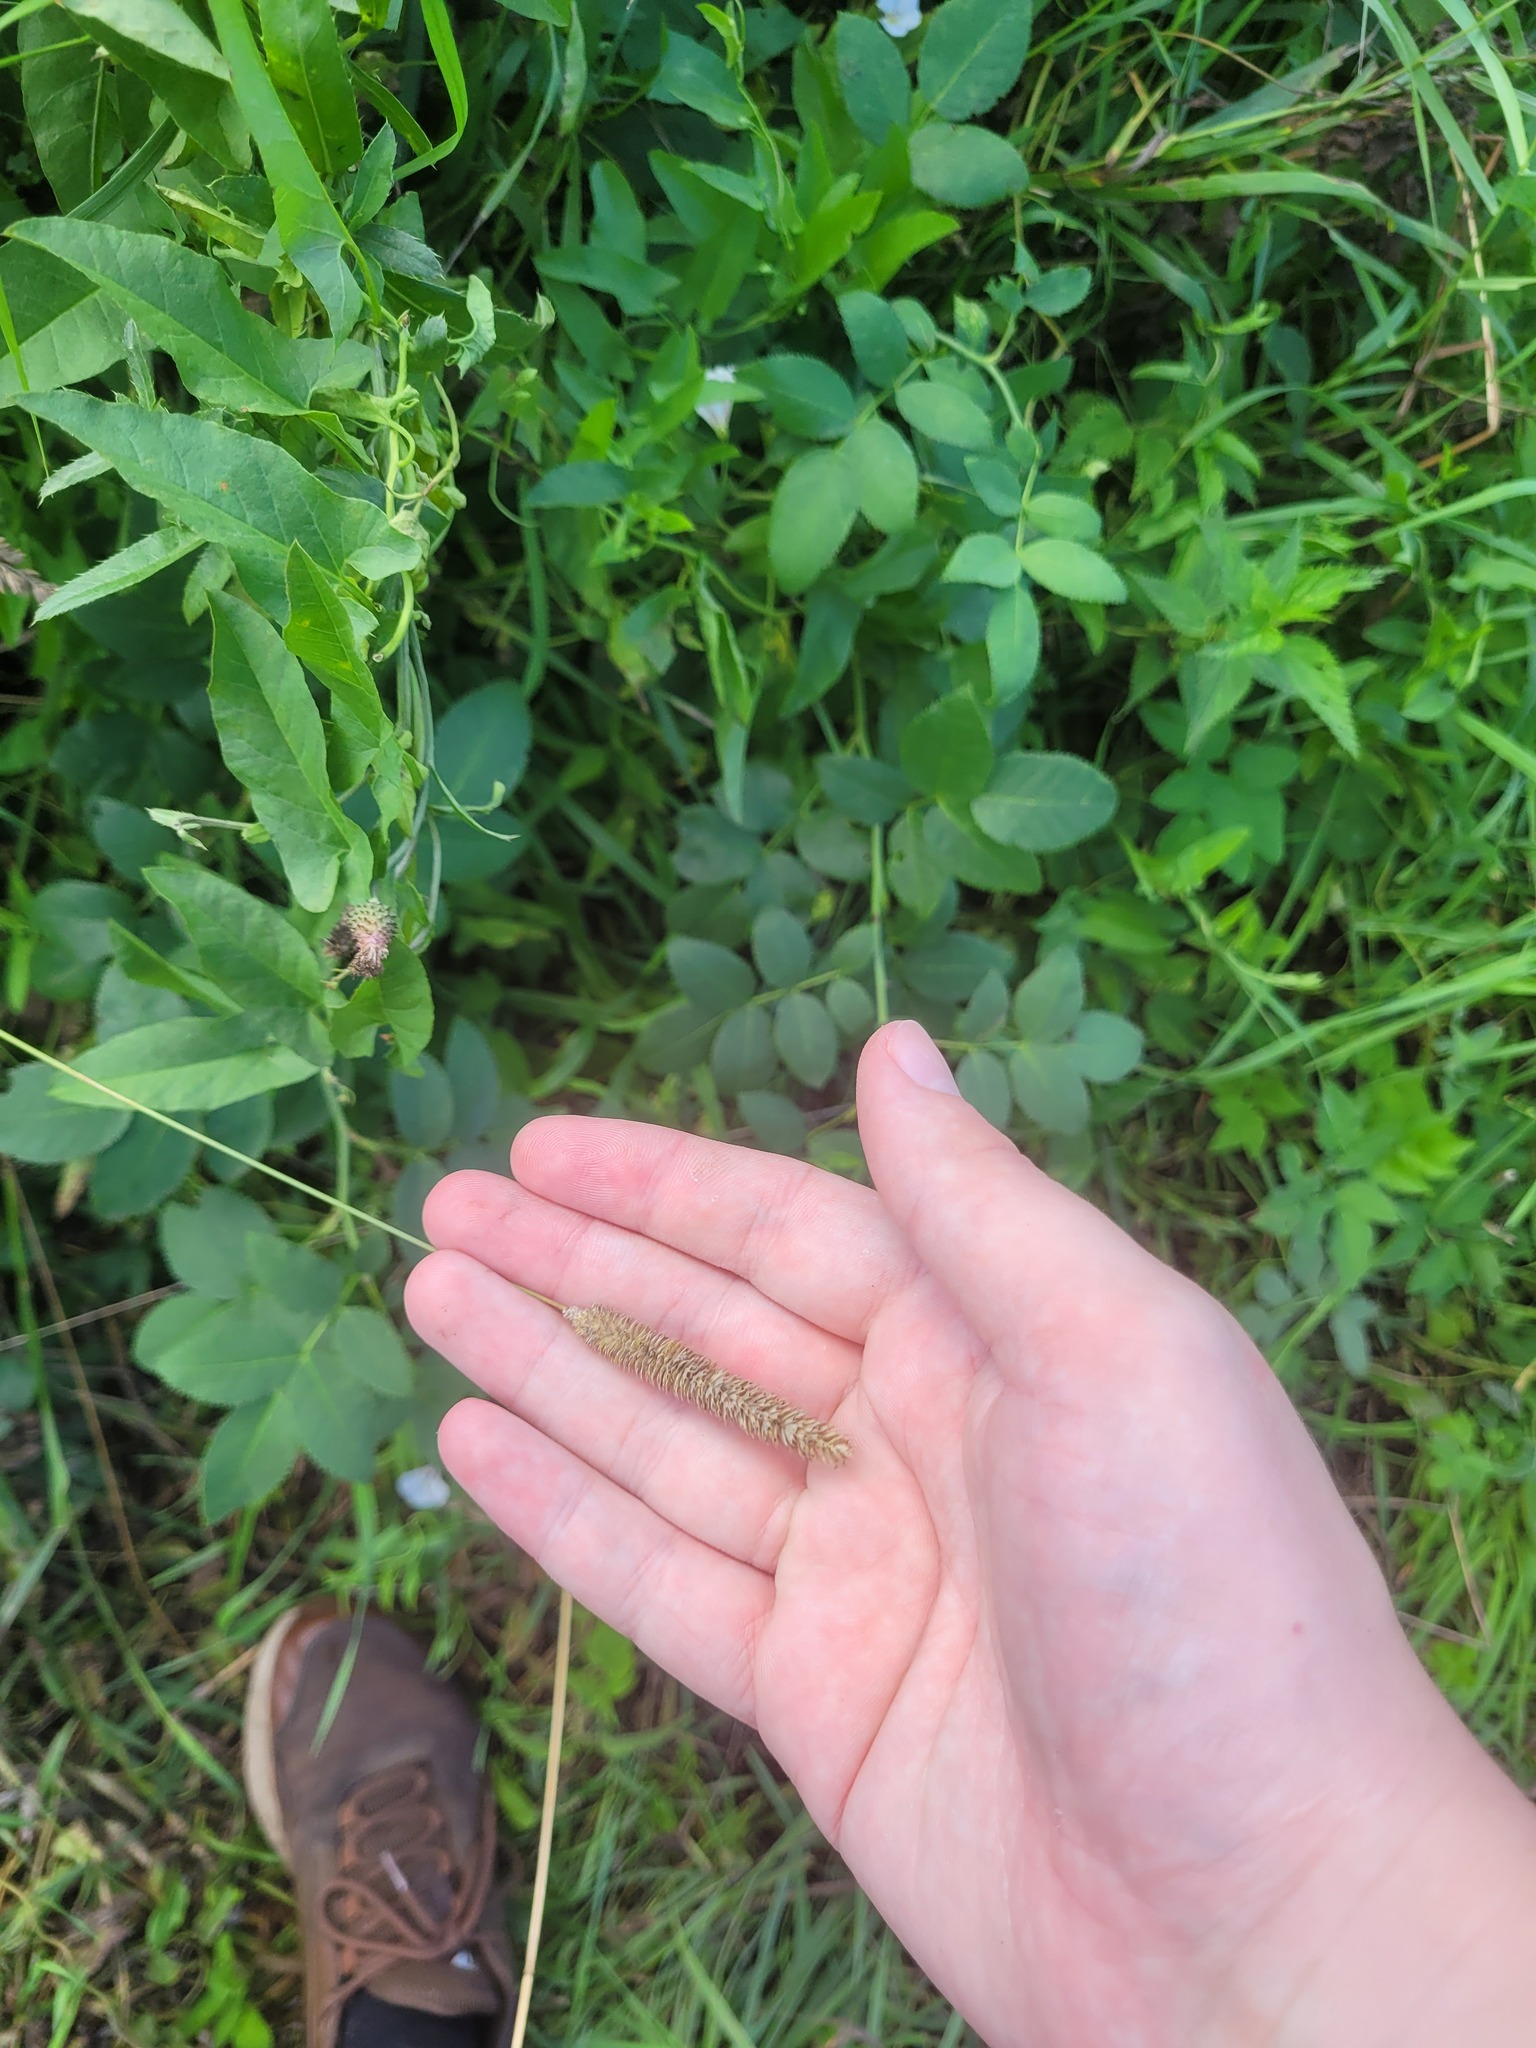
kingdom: Plantae
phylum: Tracheophyta
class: Liliopsida
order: Poales
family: Poaceae
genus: Phleum
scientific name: Phleum pratense
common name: Timothy grass
